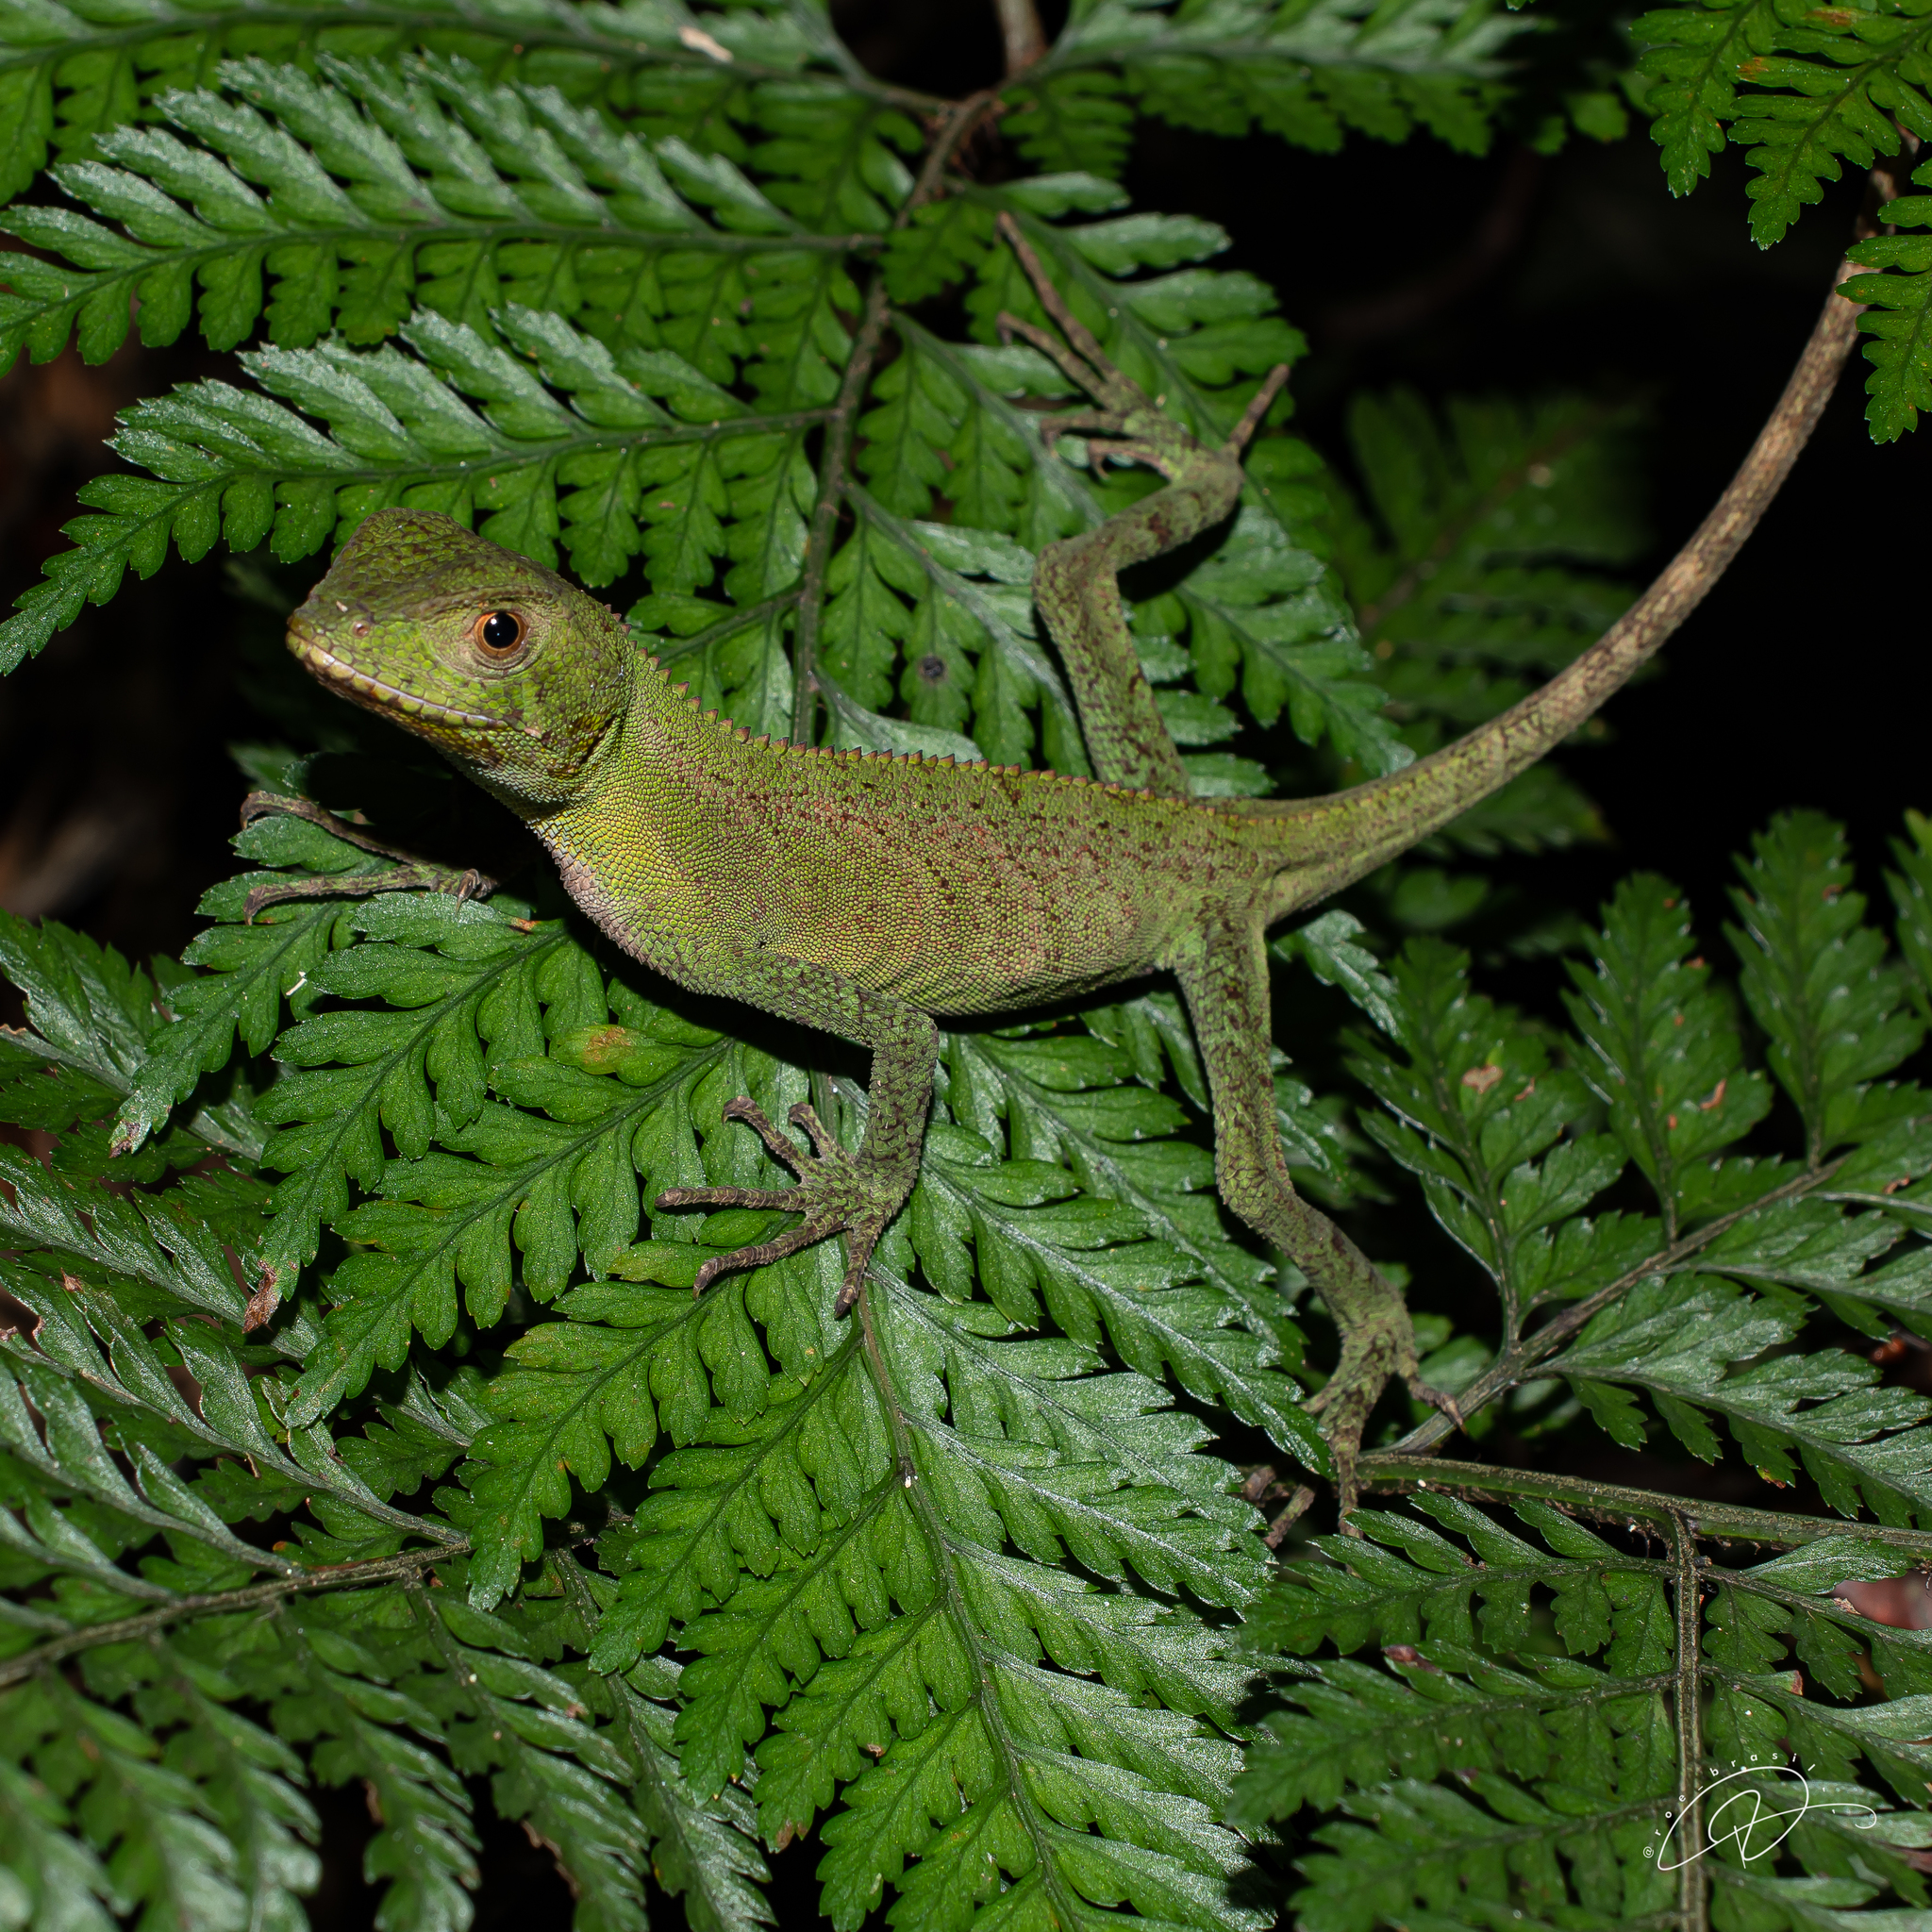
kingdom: Animalia
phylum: Chordata
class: Squamata
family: Leiosauridae
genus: Enyalius
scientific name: Enyalius perditus
